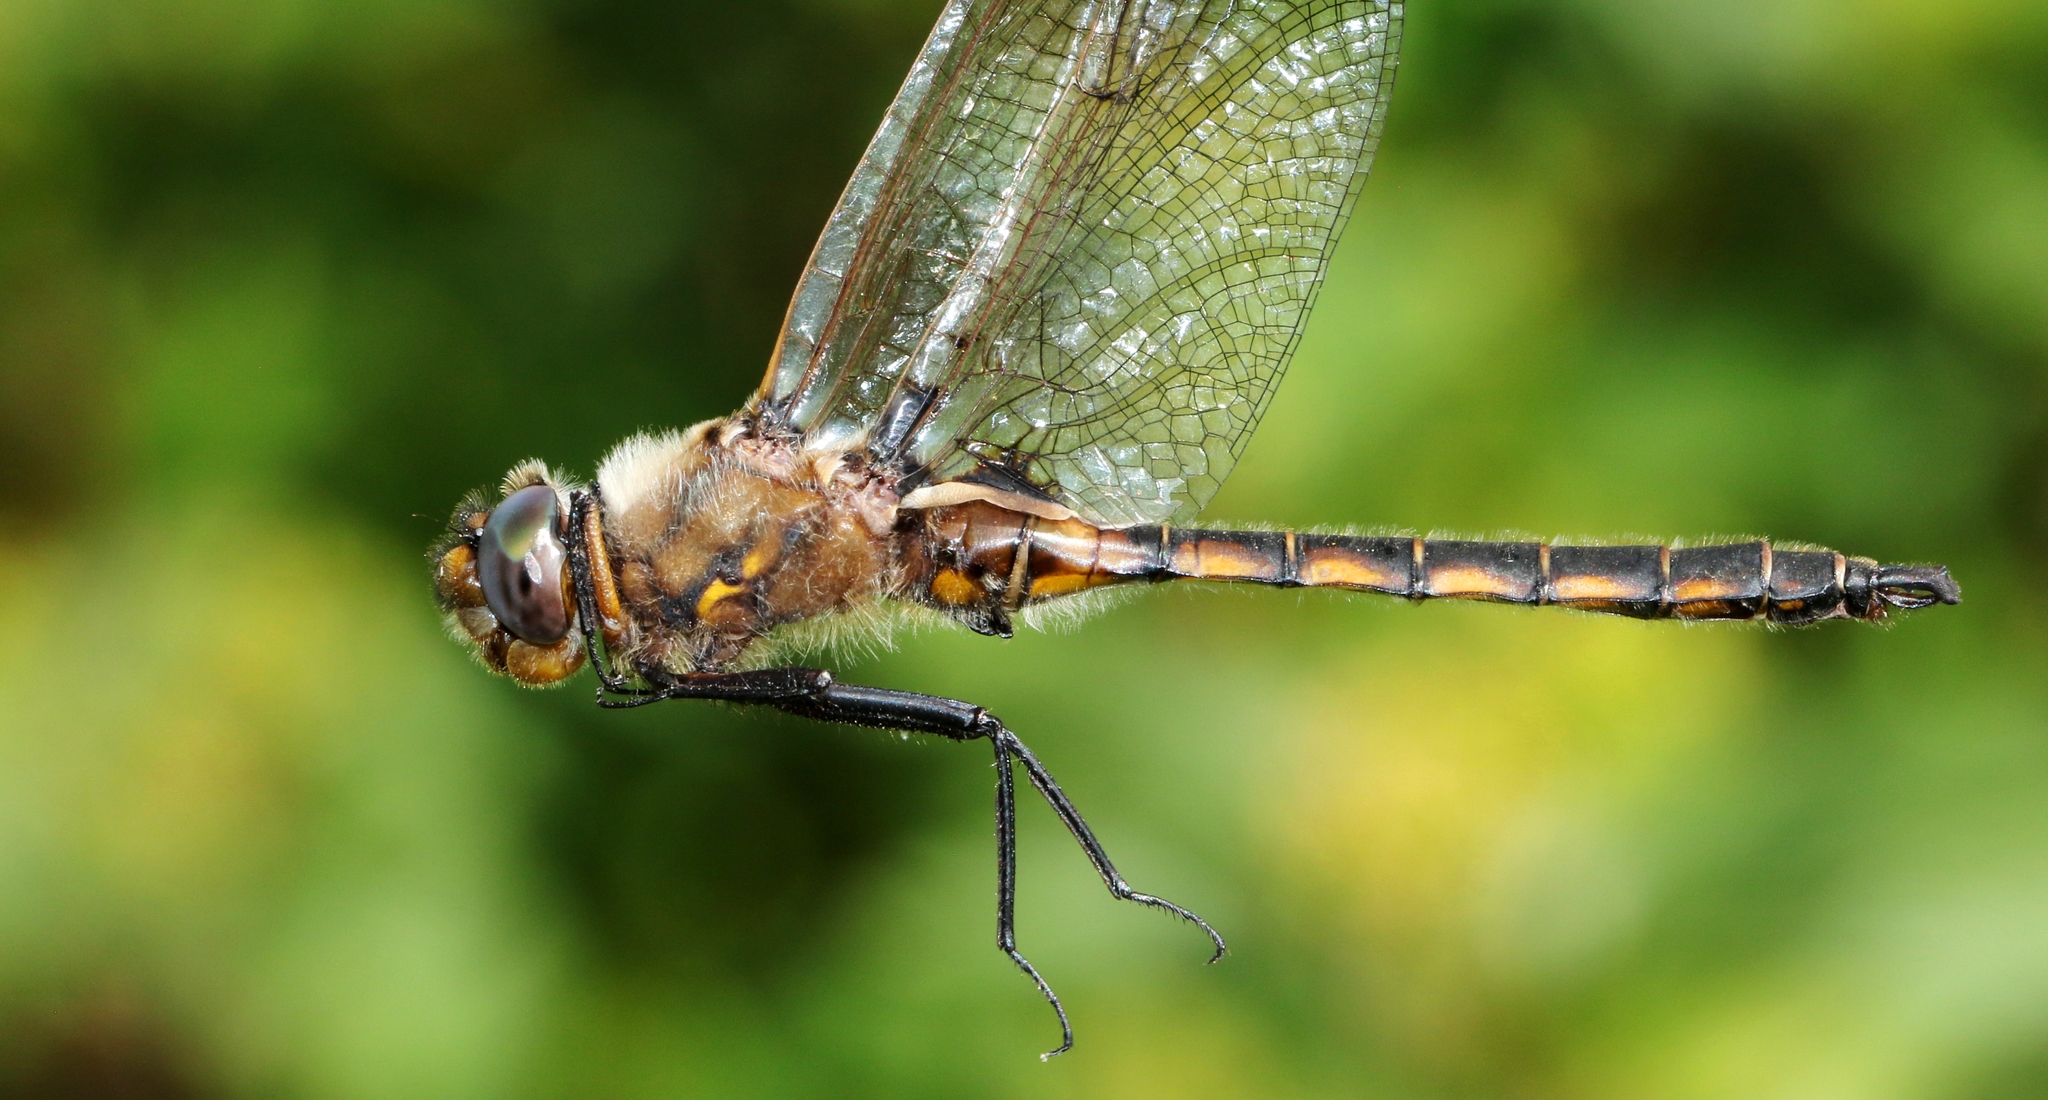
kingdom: Animalia
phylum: Arthropoda
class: Insecta
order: Odonata
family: Corduliidae
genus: Epitheca
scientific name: Epitheca canis
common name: Beaverpond baskettail
